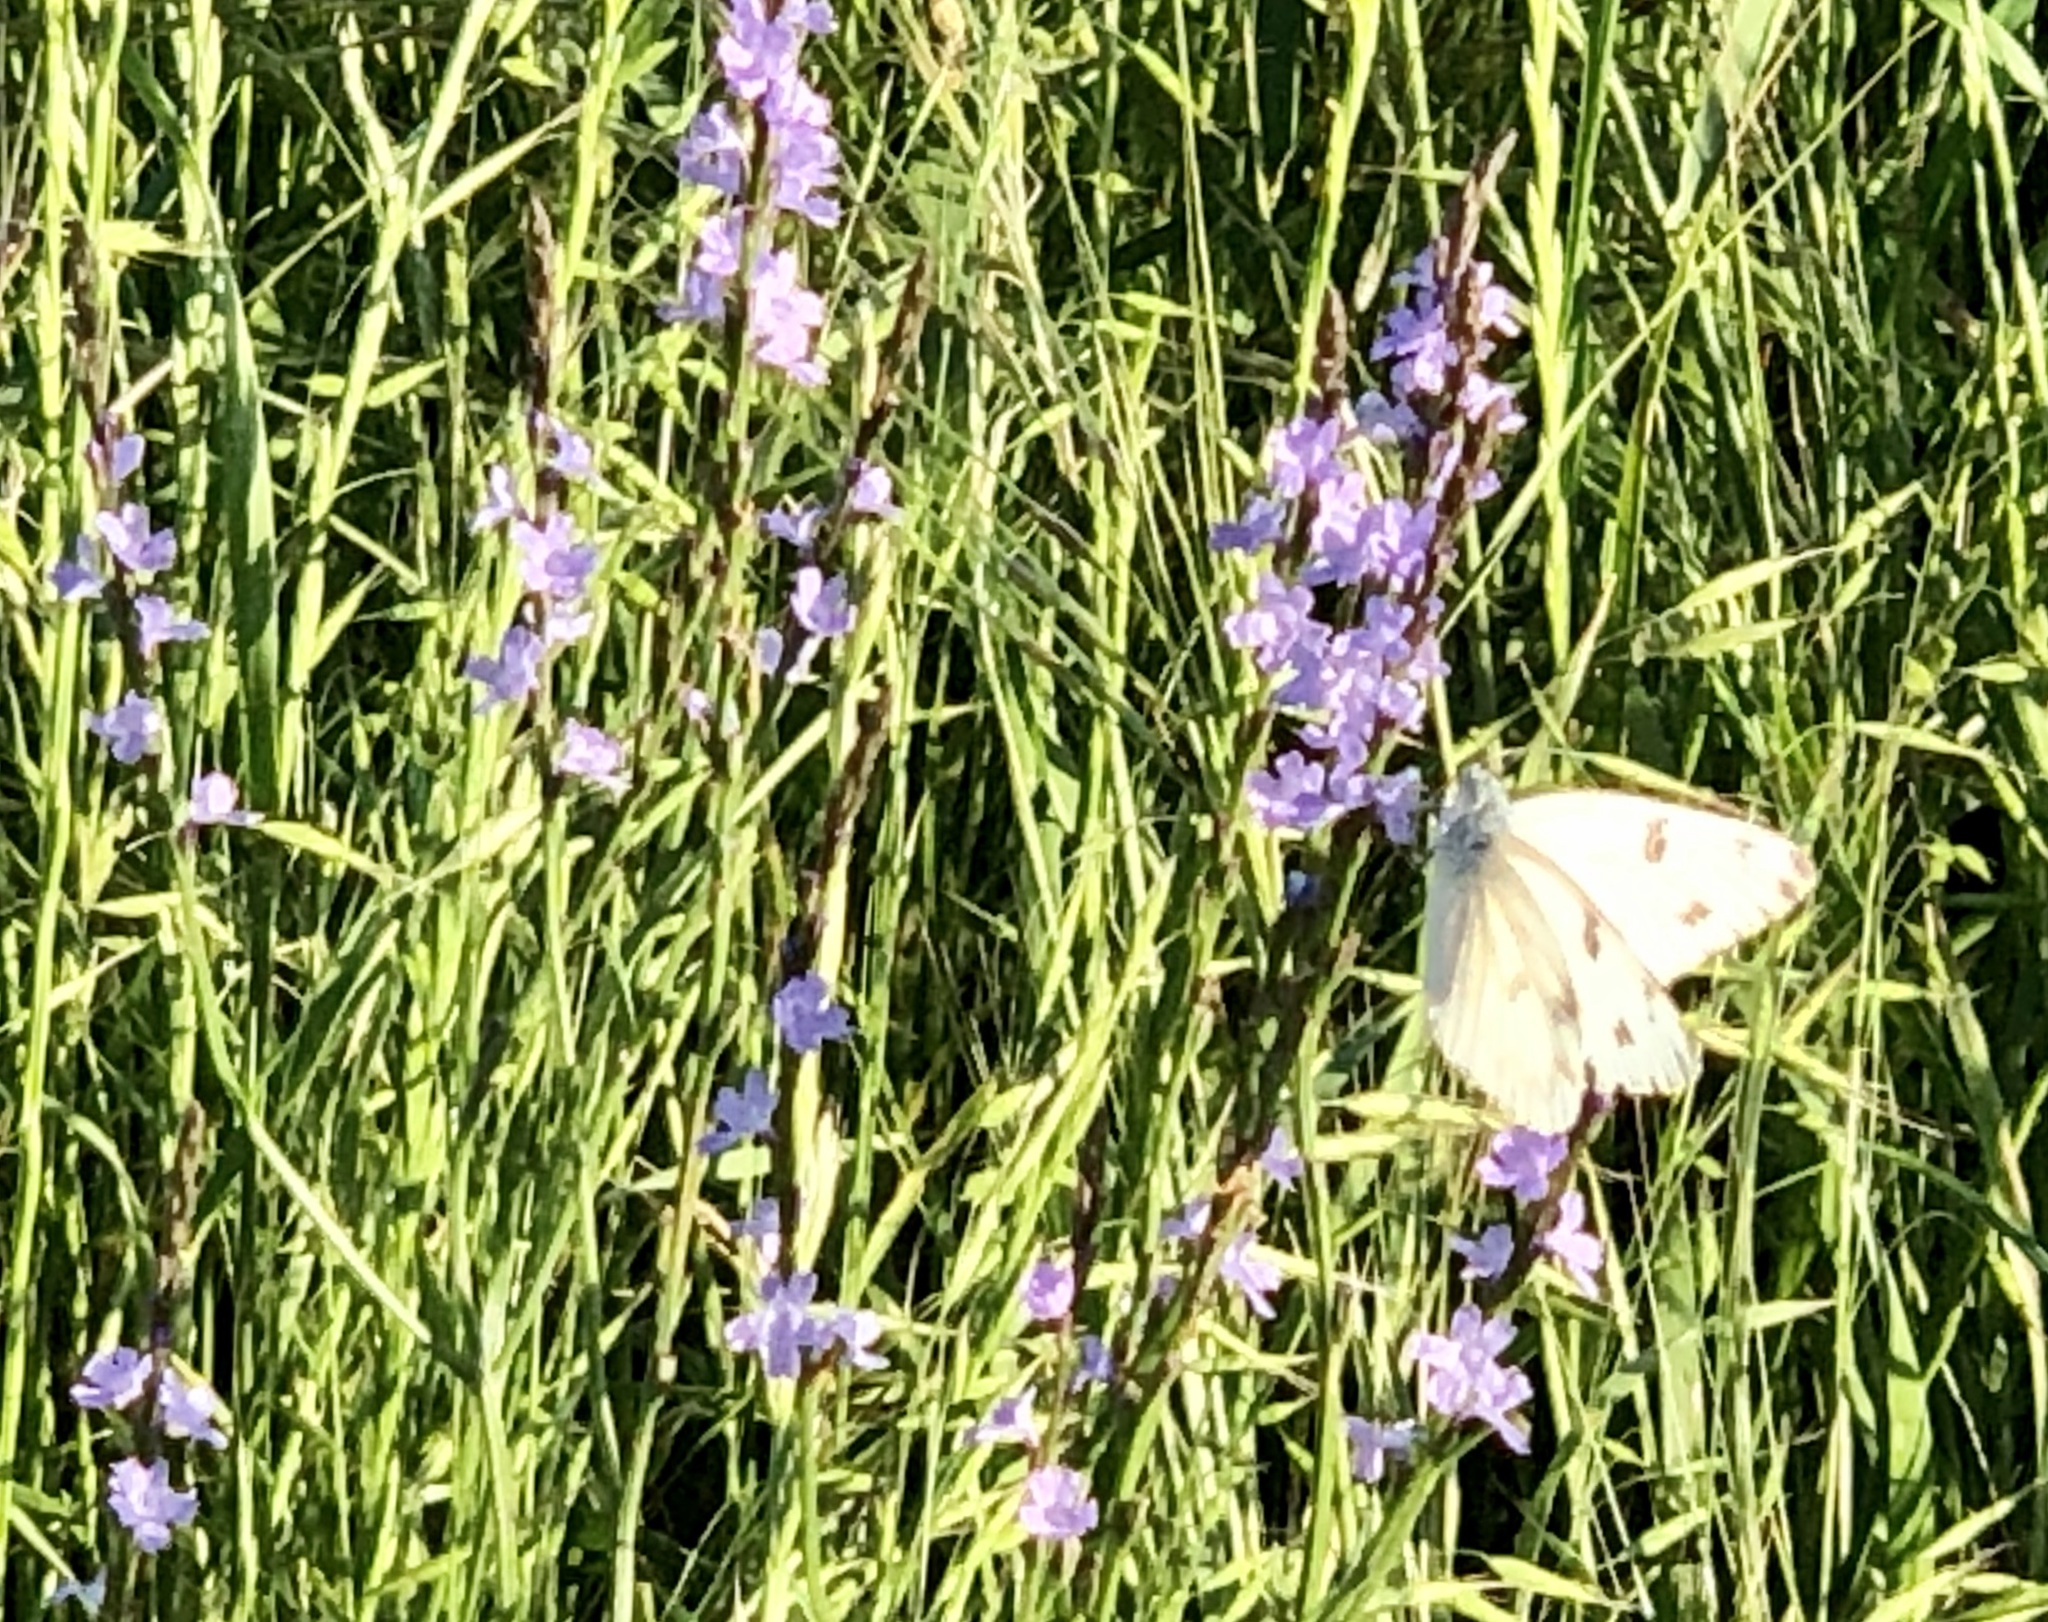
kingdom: Animalia
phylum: Arthropoda
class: Insecta
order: Lepidoptera
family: Pieridae
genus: Pontia
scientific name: Pontia protodice
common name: Checkered white
